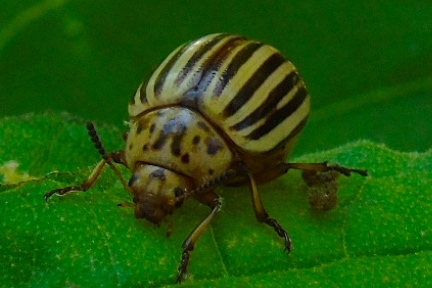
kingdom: Animalia
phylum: Arthropoda
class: Insecta
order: Coleoptera
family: Chrysomelidae
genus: Leptinotarsa
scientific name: Leptinotarsa decemlineata
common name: Colorado potato beetle
